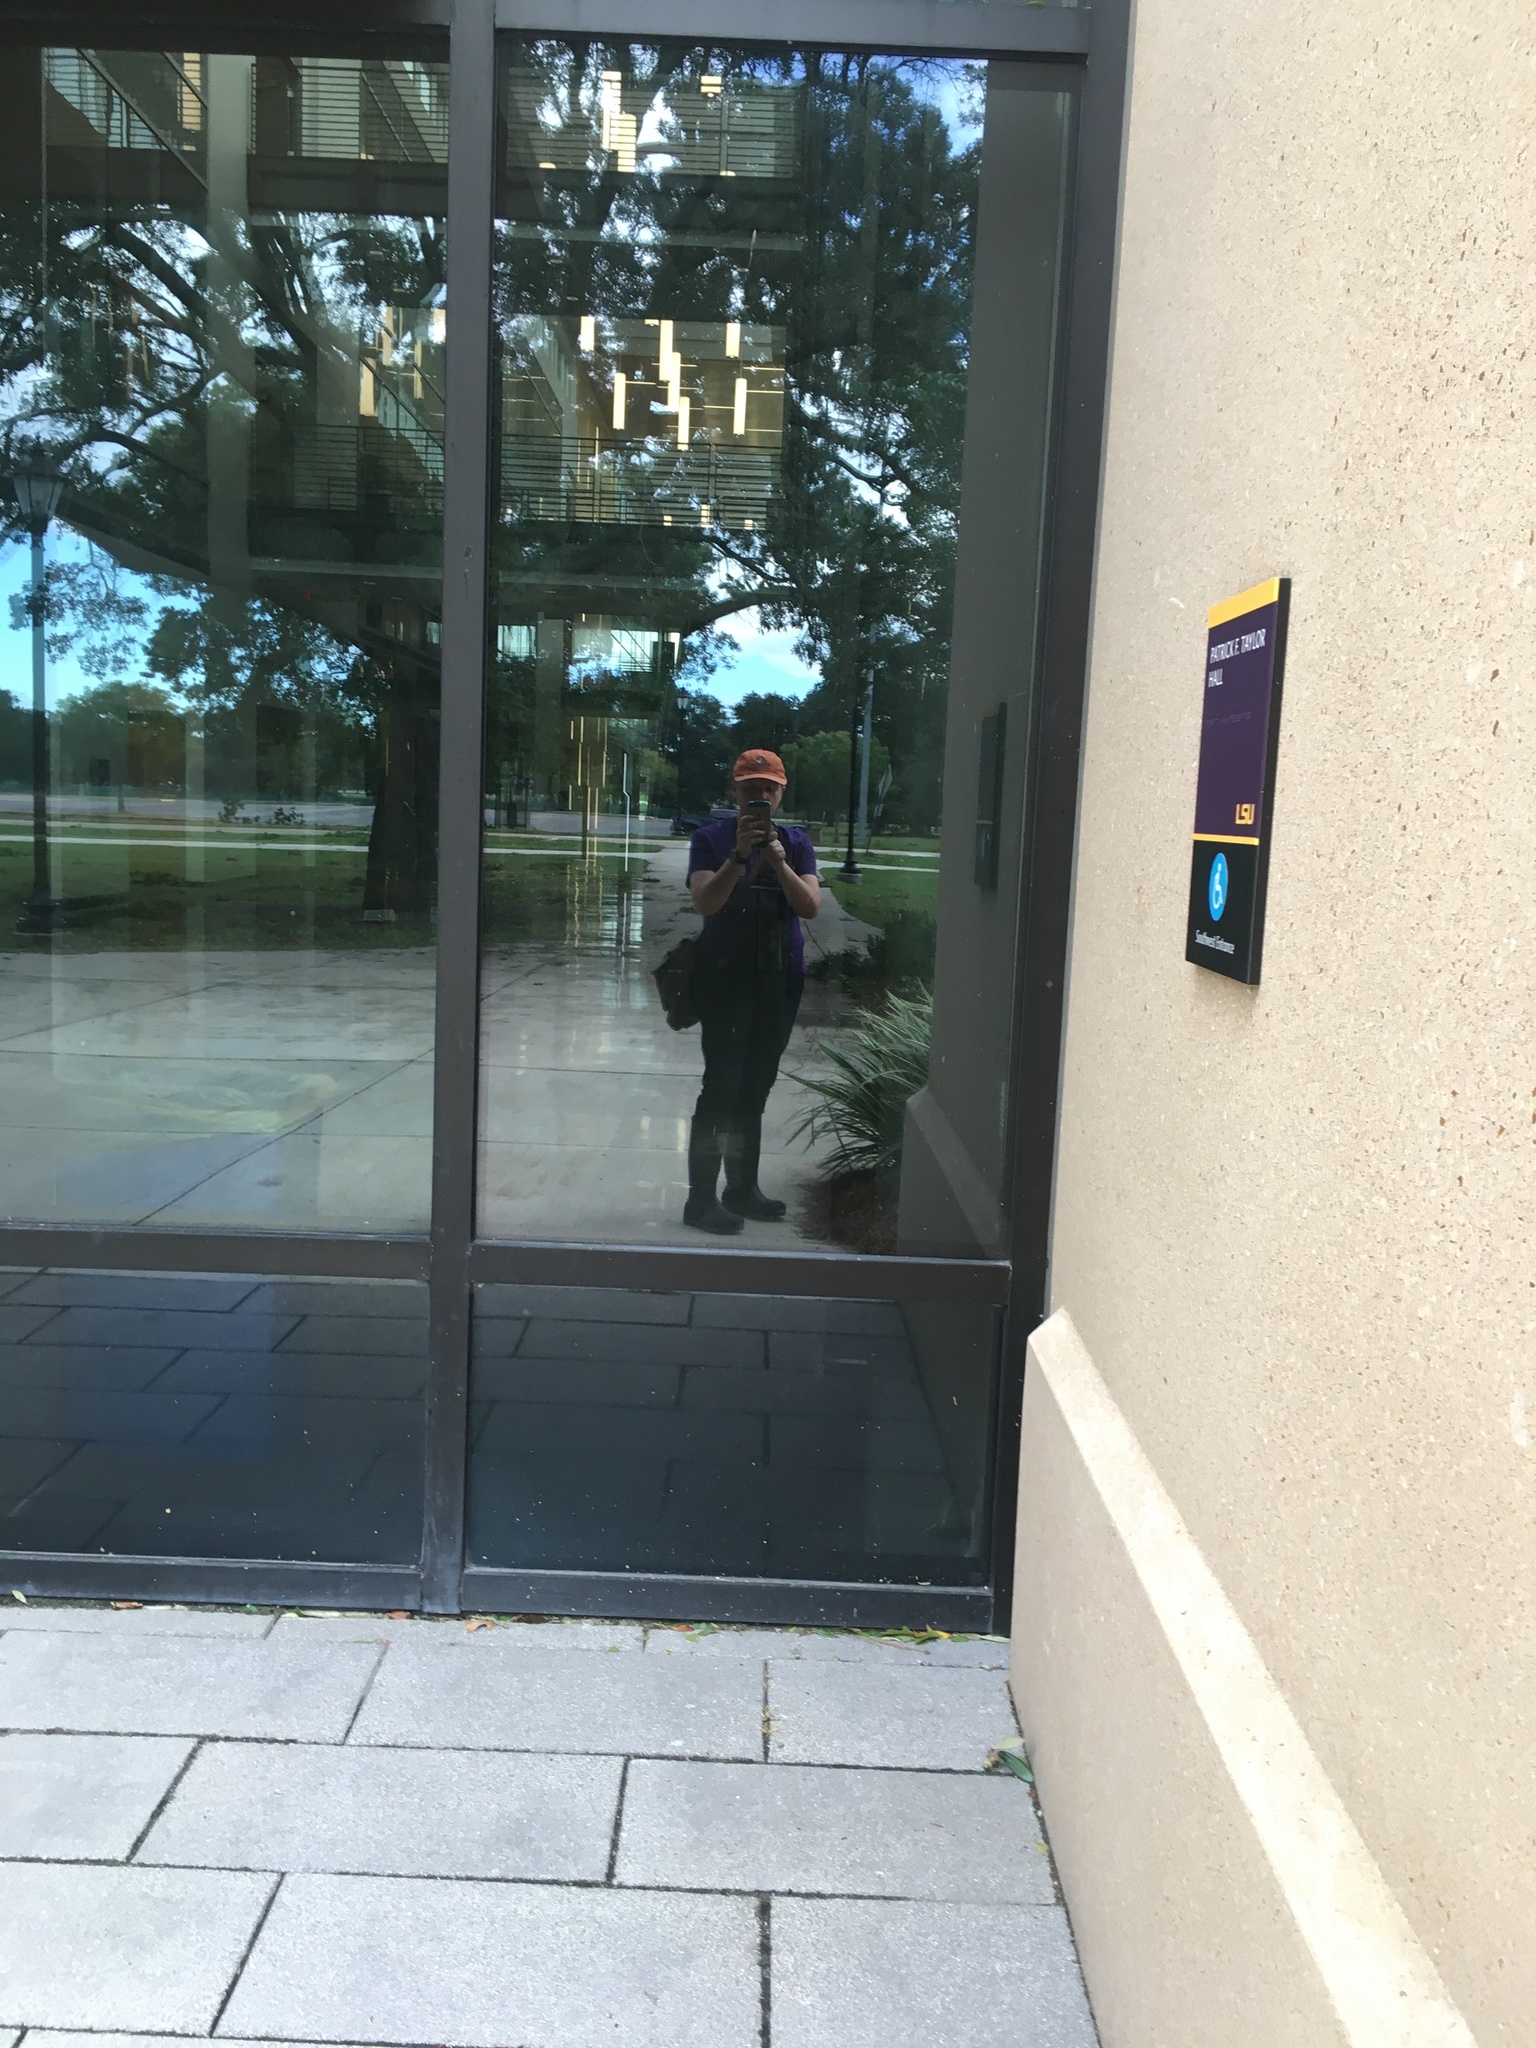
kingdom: Animalia
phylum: Chordata
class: Aves
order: Passeriformes
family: Parulidae
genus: Setophaga
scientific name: Setophaga magnolia
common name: Magnolia warbler
